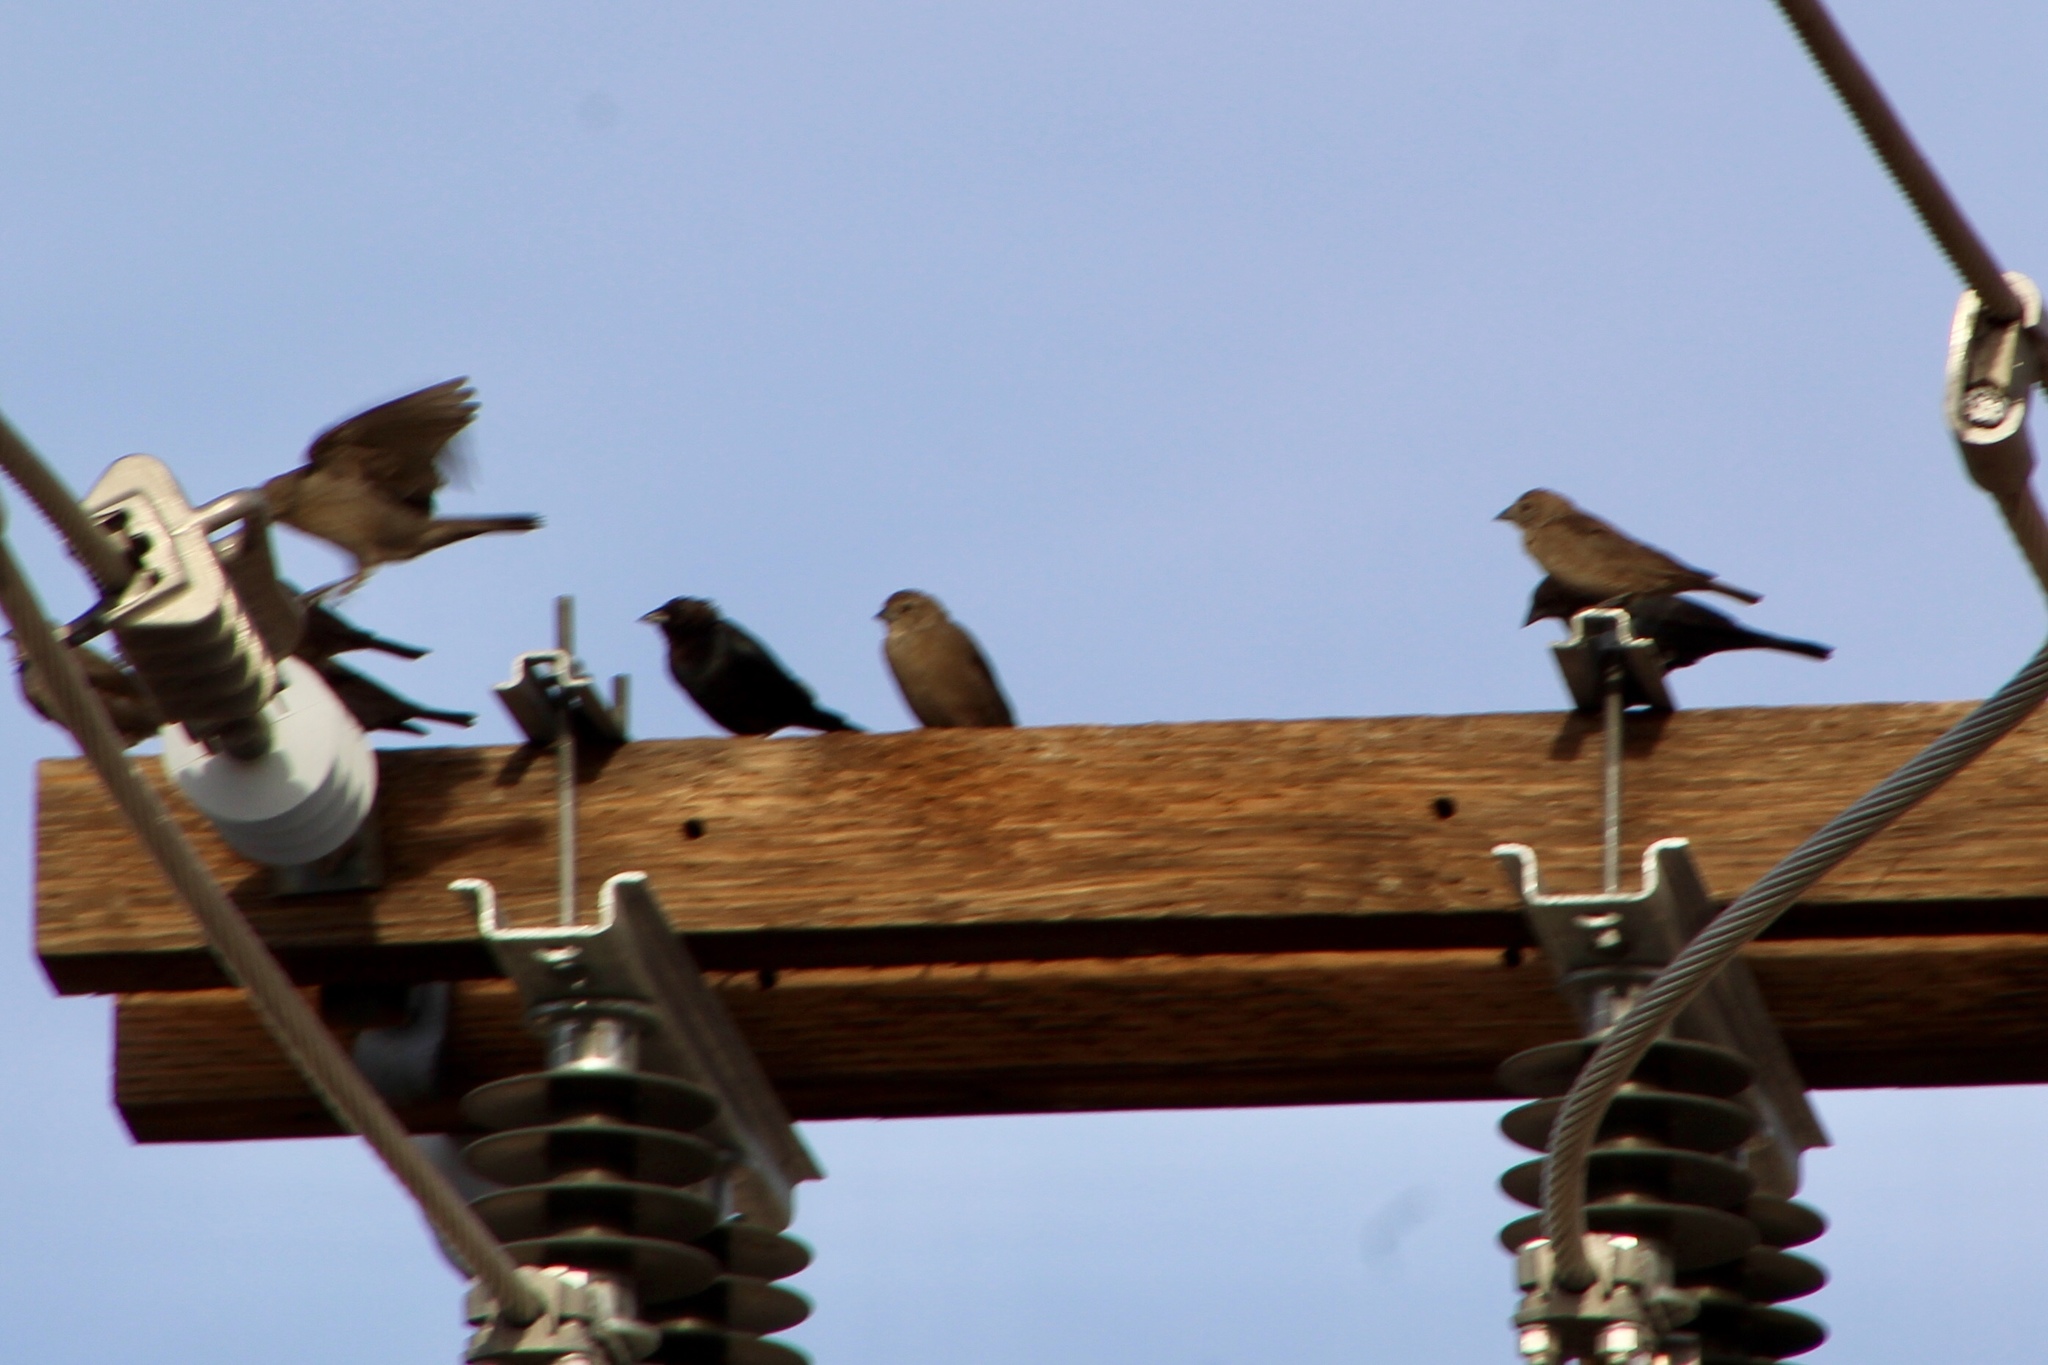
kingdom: Animalia
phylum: Chordata
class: Aves
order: Passeriformes
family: Icteridae
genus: Molothrus
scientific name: Molothrus ater
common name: Brown-headed cowbird
